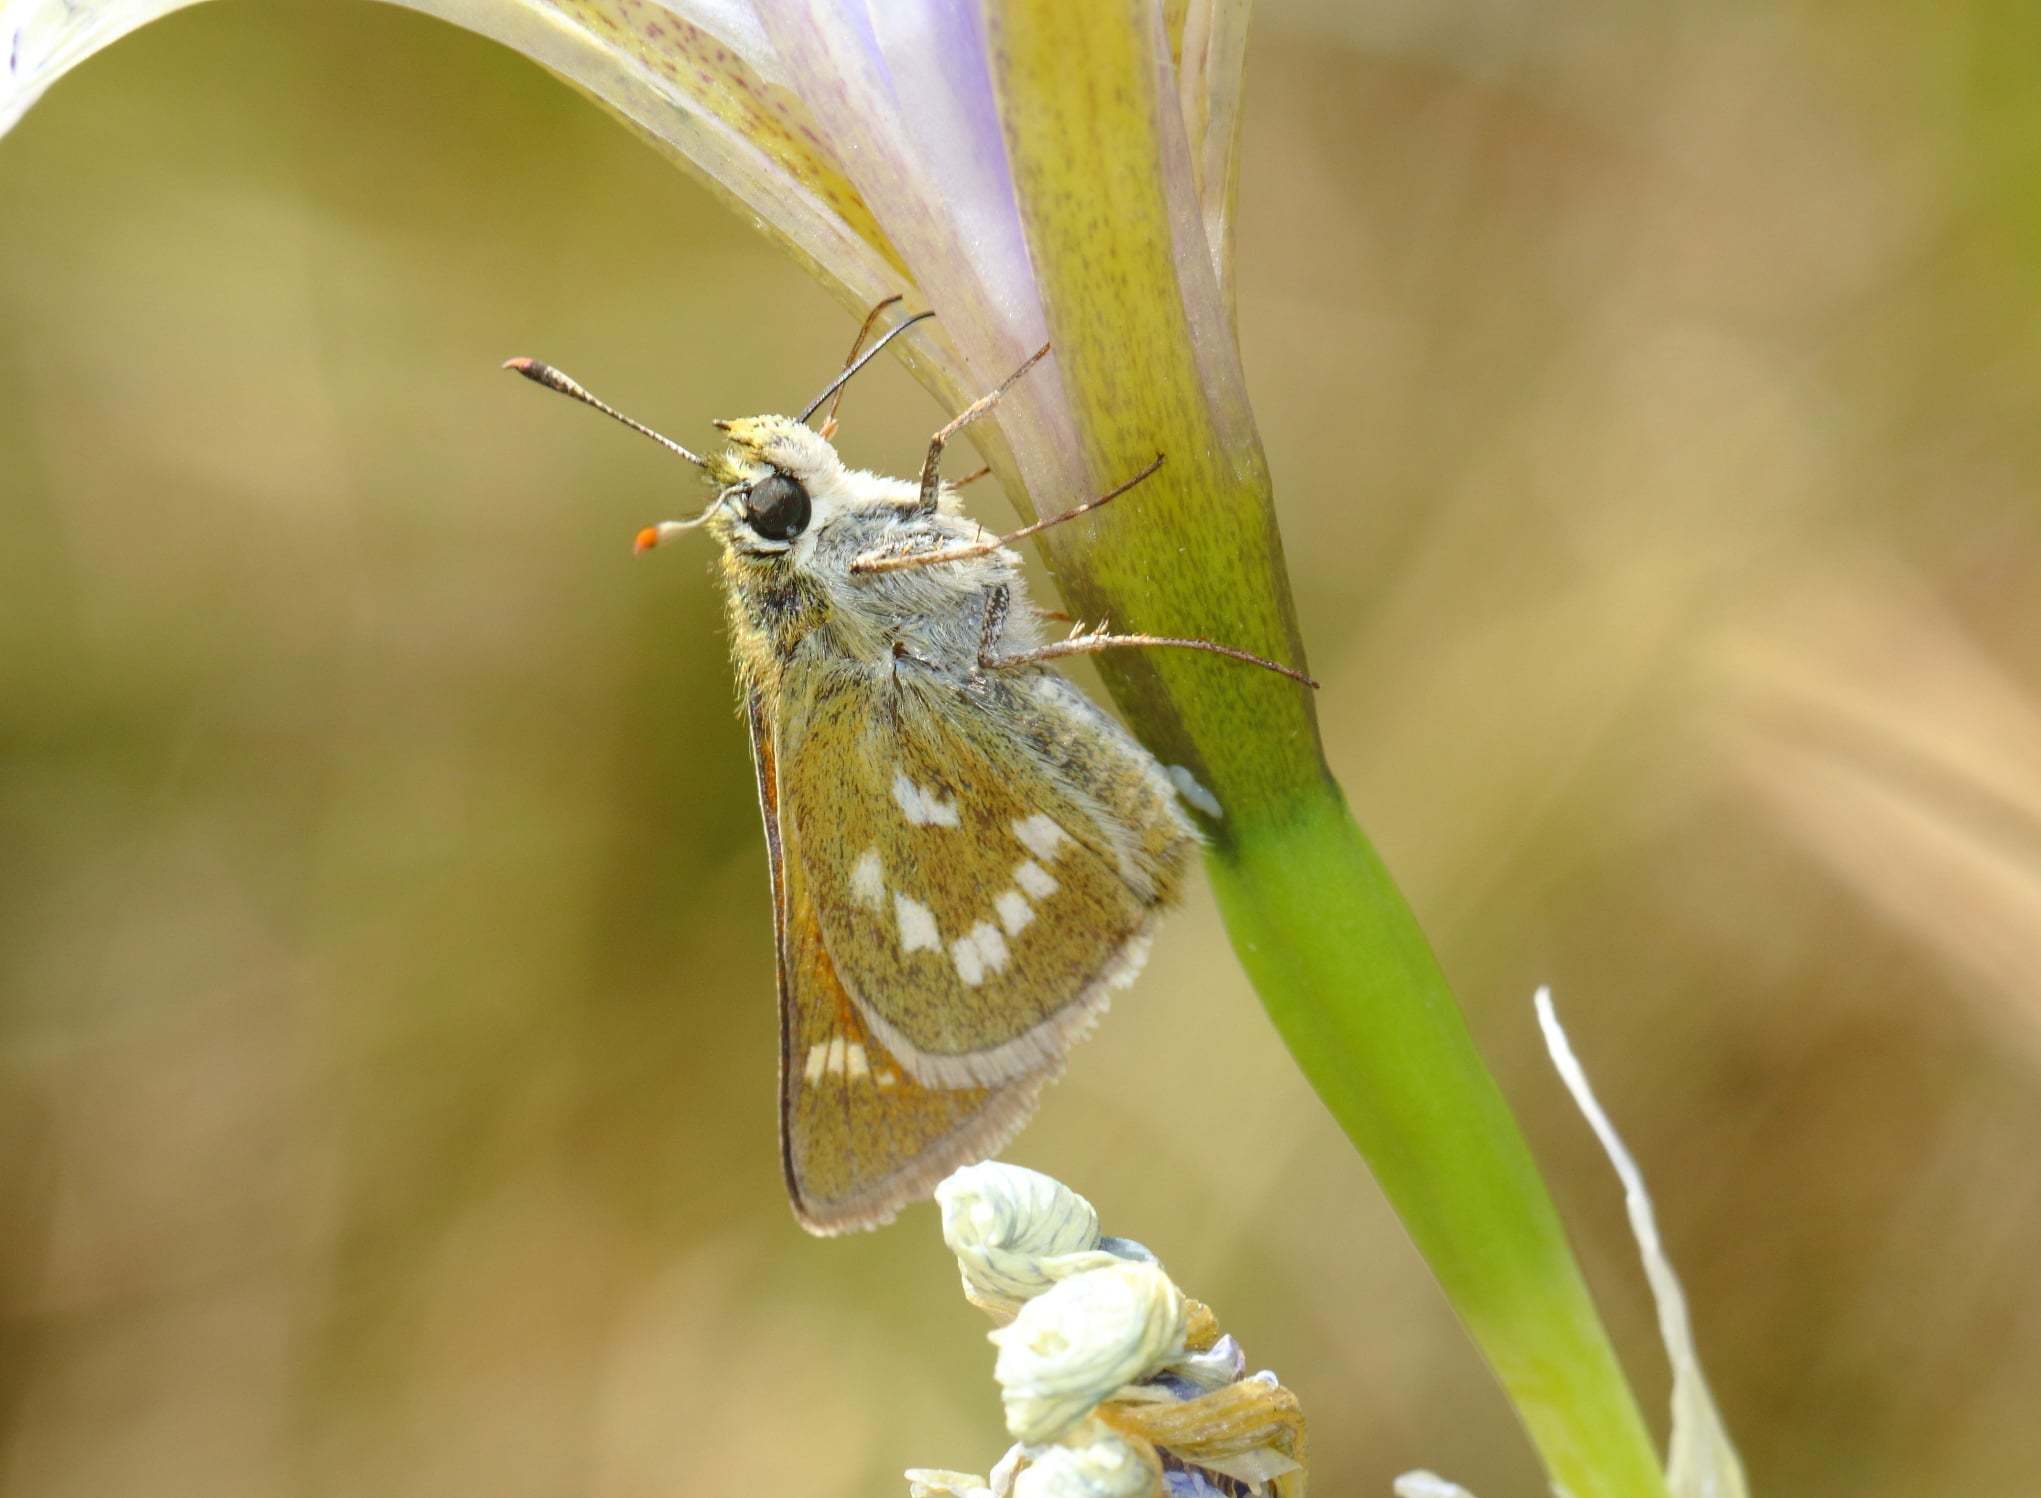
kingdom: Animalia
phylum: Arthropoda
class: Insecta
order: Lepidoptera
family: Hesperiidae
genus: Polites
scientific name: Polites mystic
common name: Long dash
